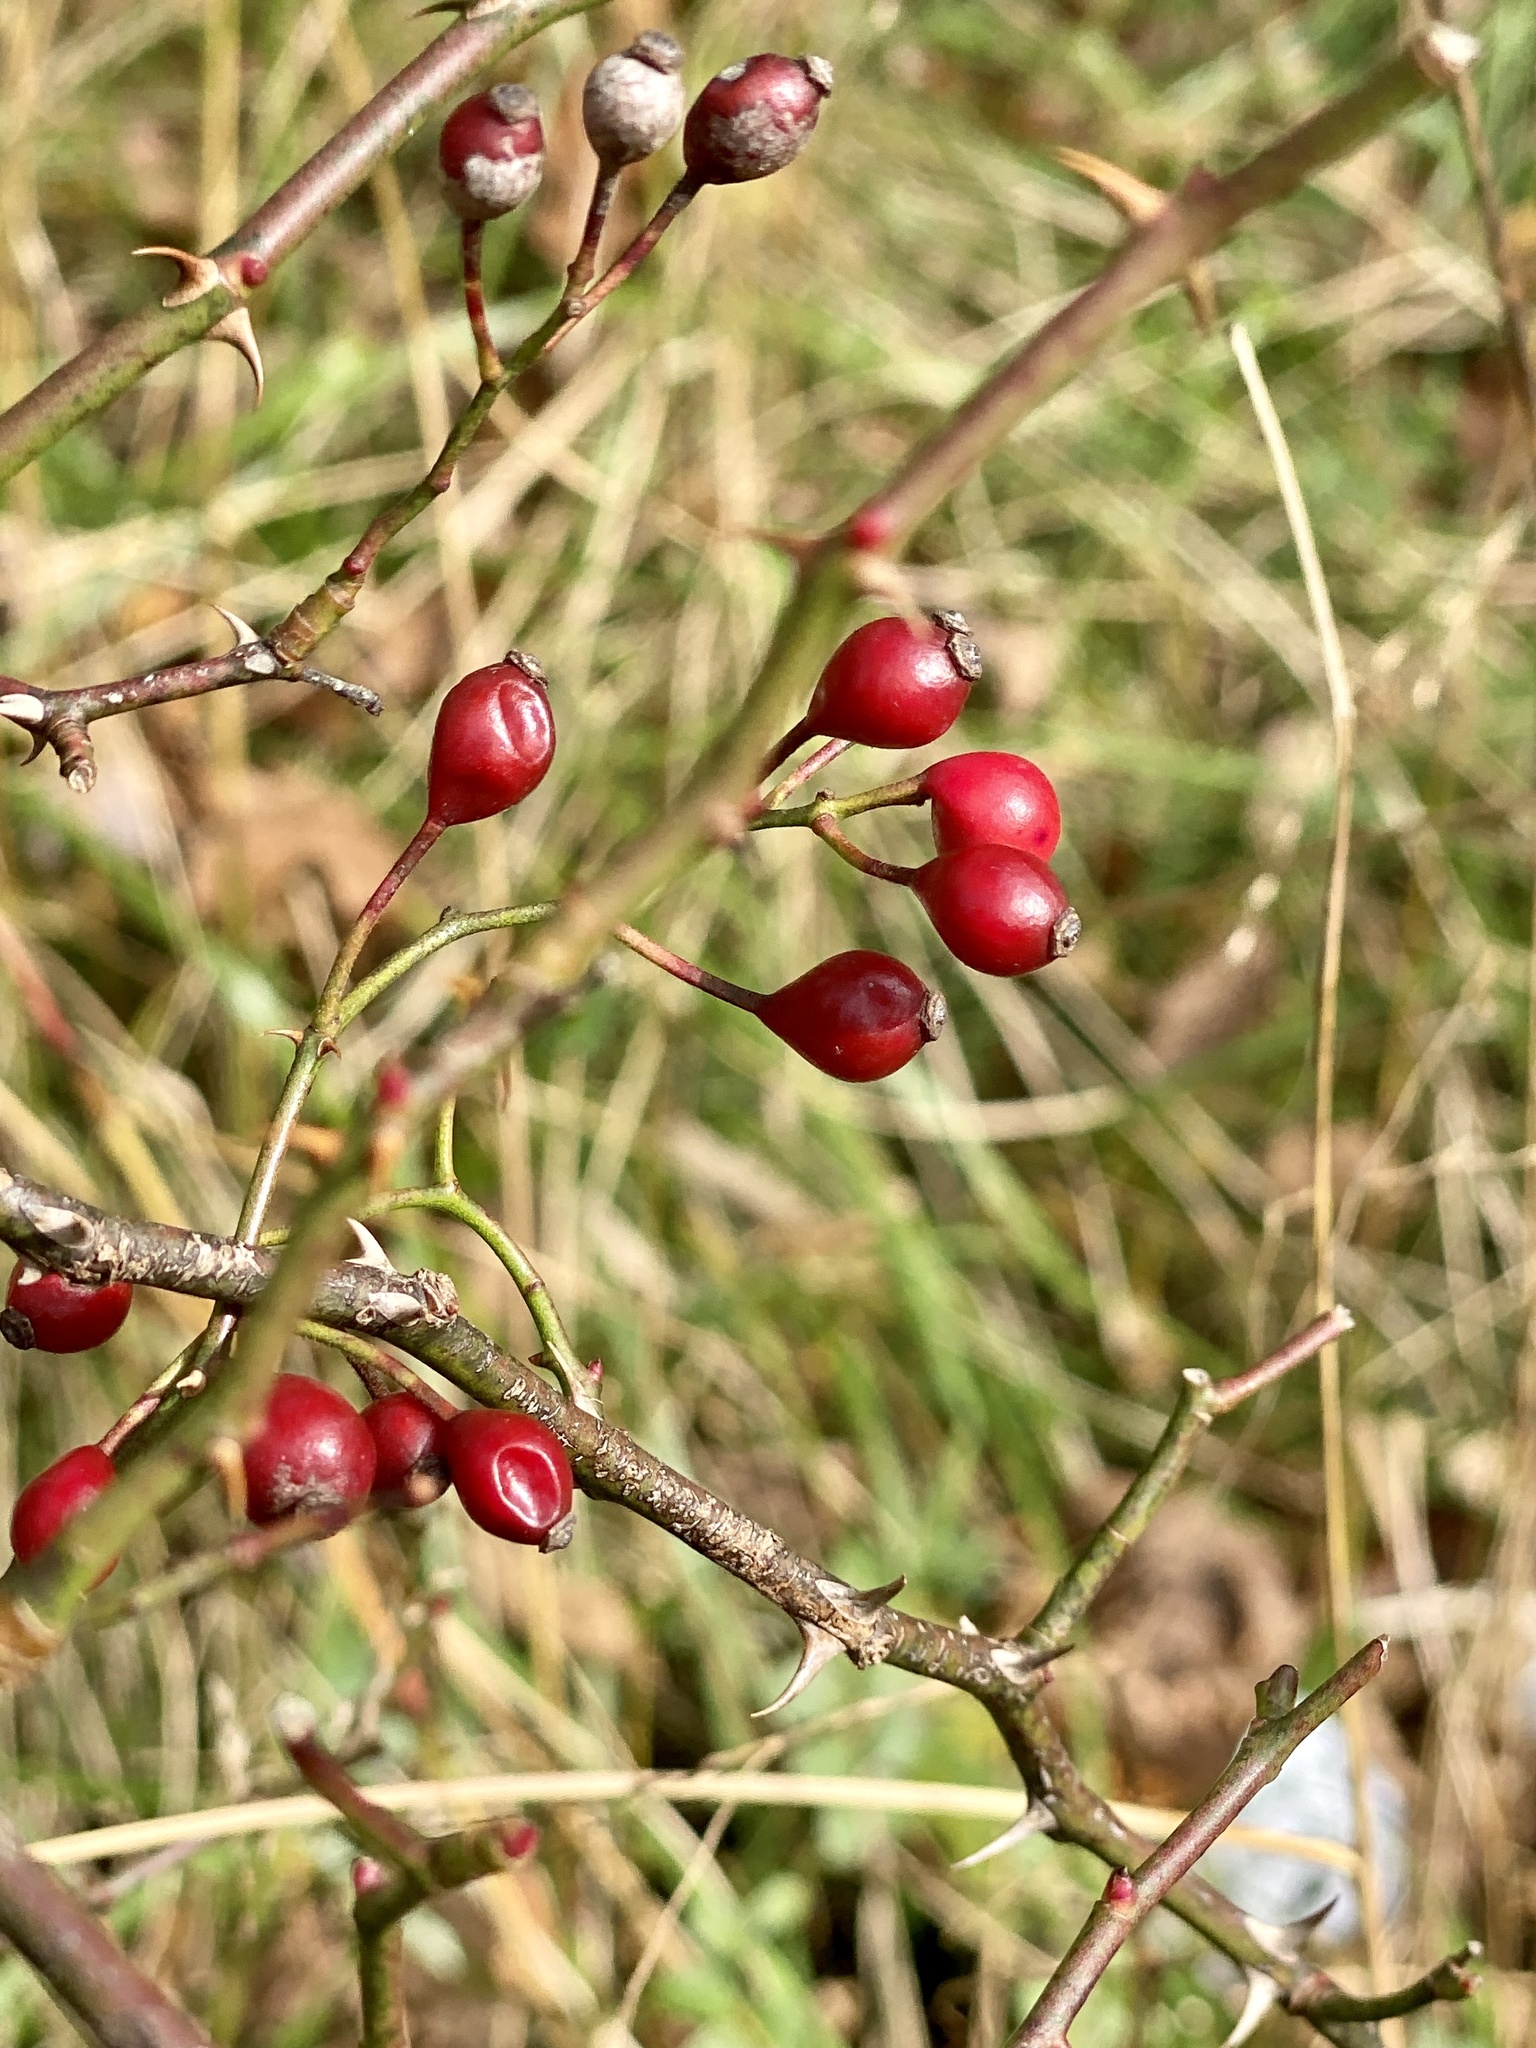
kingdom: Plantae
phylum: Tracheophyta
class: Magnoliopsida
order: Rosales
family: Rosaceae
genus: Rosa
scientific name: Rosa multiflora
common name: Multiflora rose
